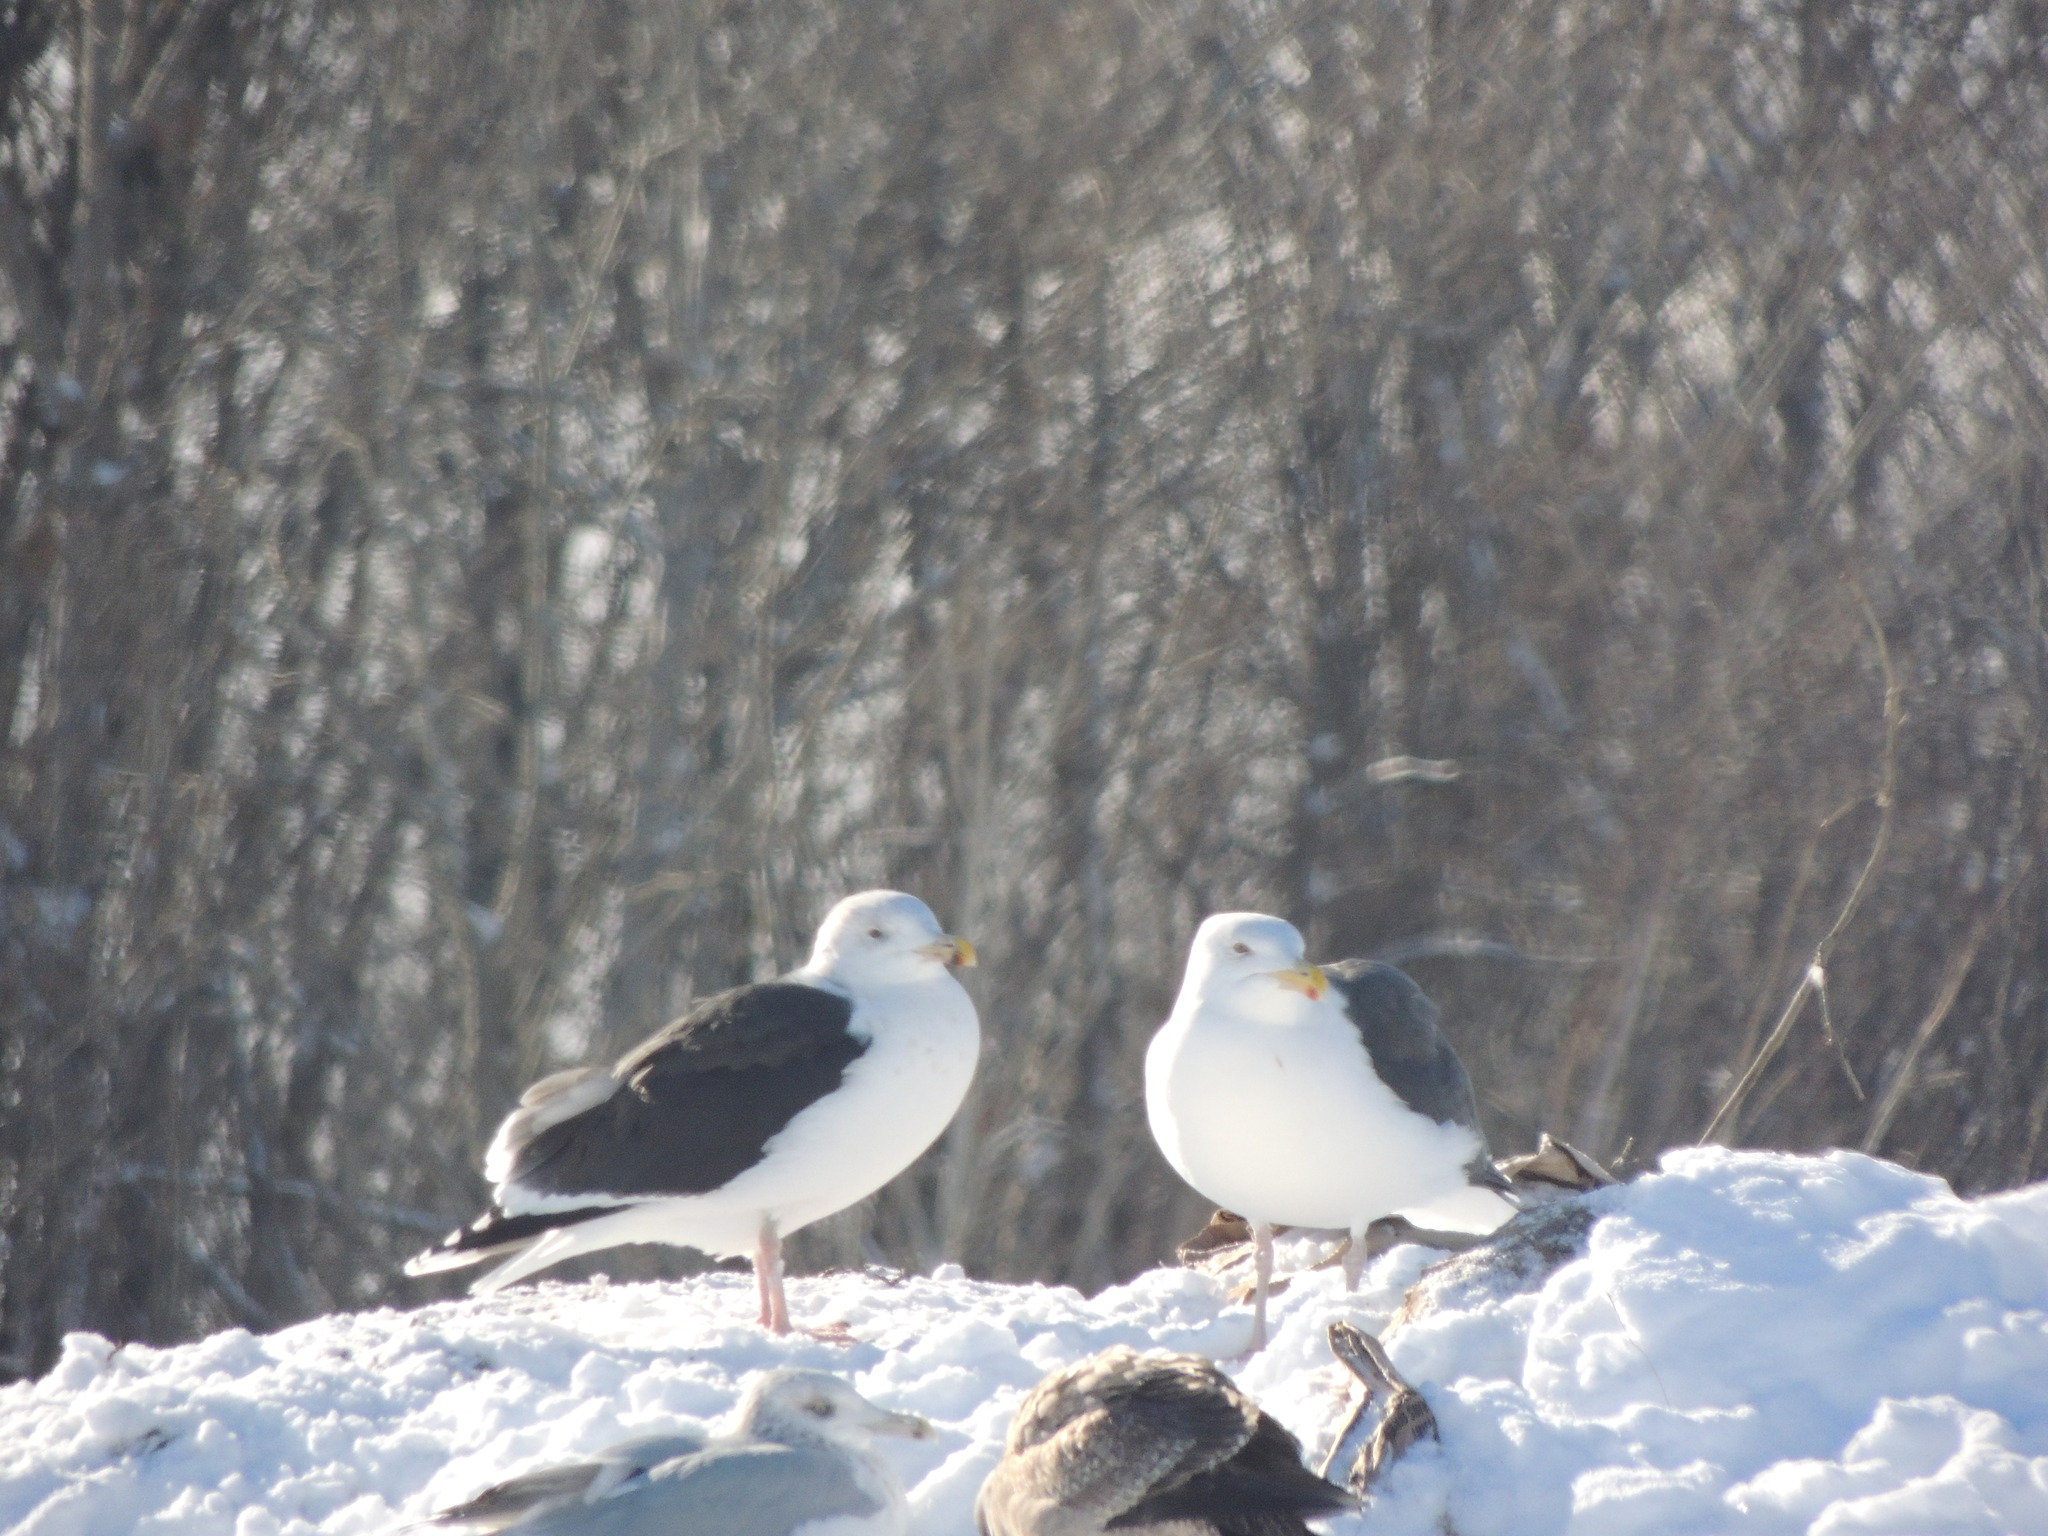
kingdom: Animalia
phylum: Chordata
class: Aves
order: Charadriiformes
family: Laridae
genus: Larus
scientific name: Larus marinus
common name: Great black-backed gull
